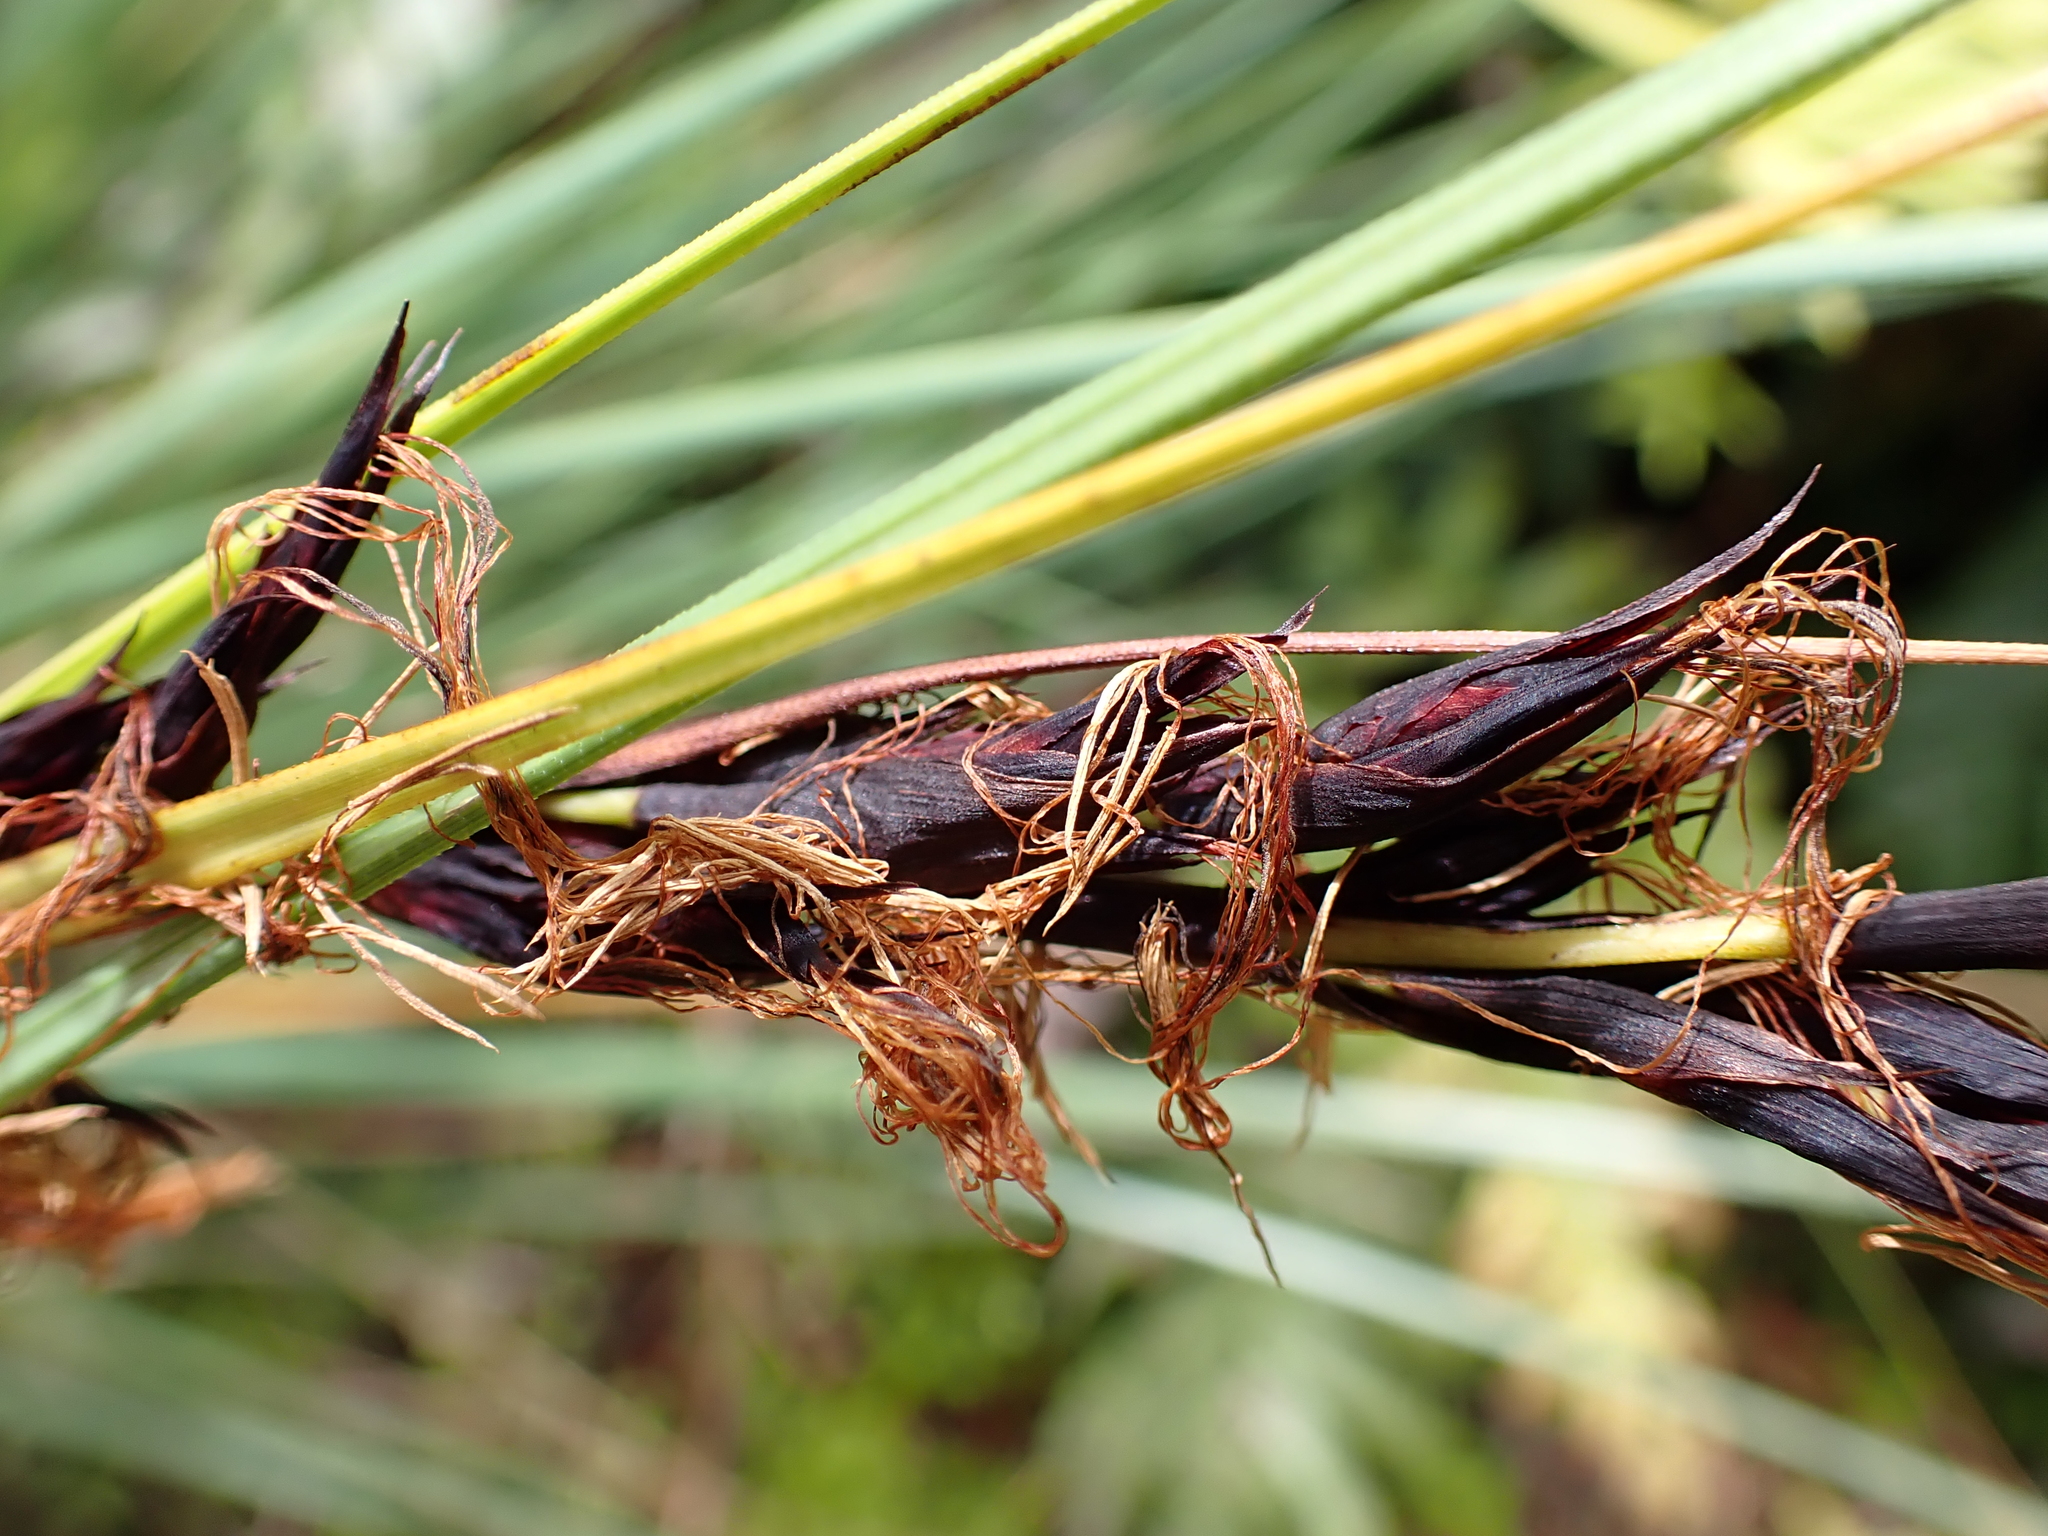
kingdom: Plantae
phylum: Tracheophyta
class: Liliopsida
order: Poales
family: Cyperaceae
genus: Gahnia
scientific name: Gahnia procera
